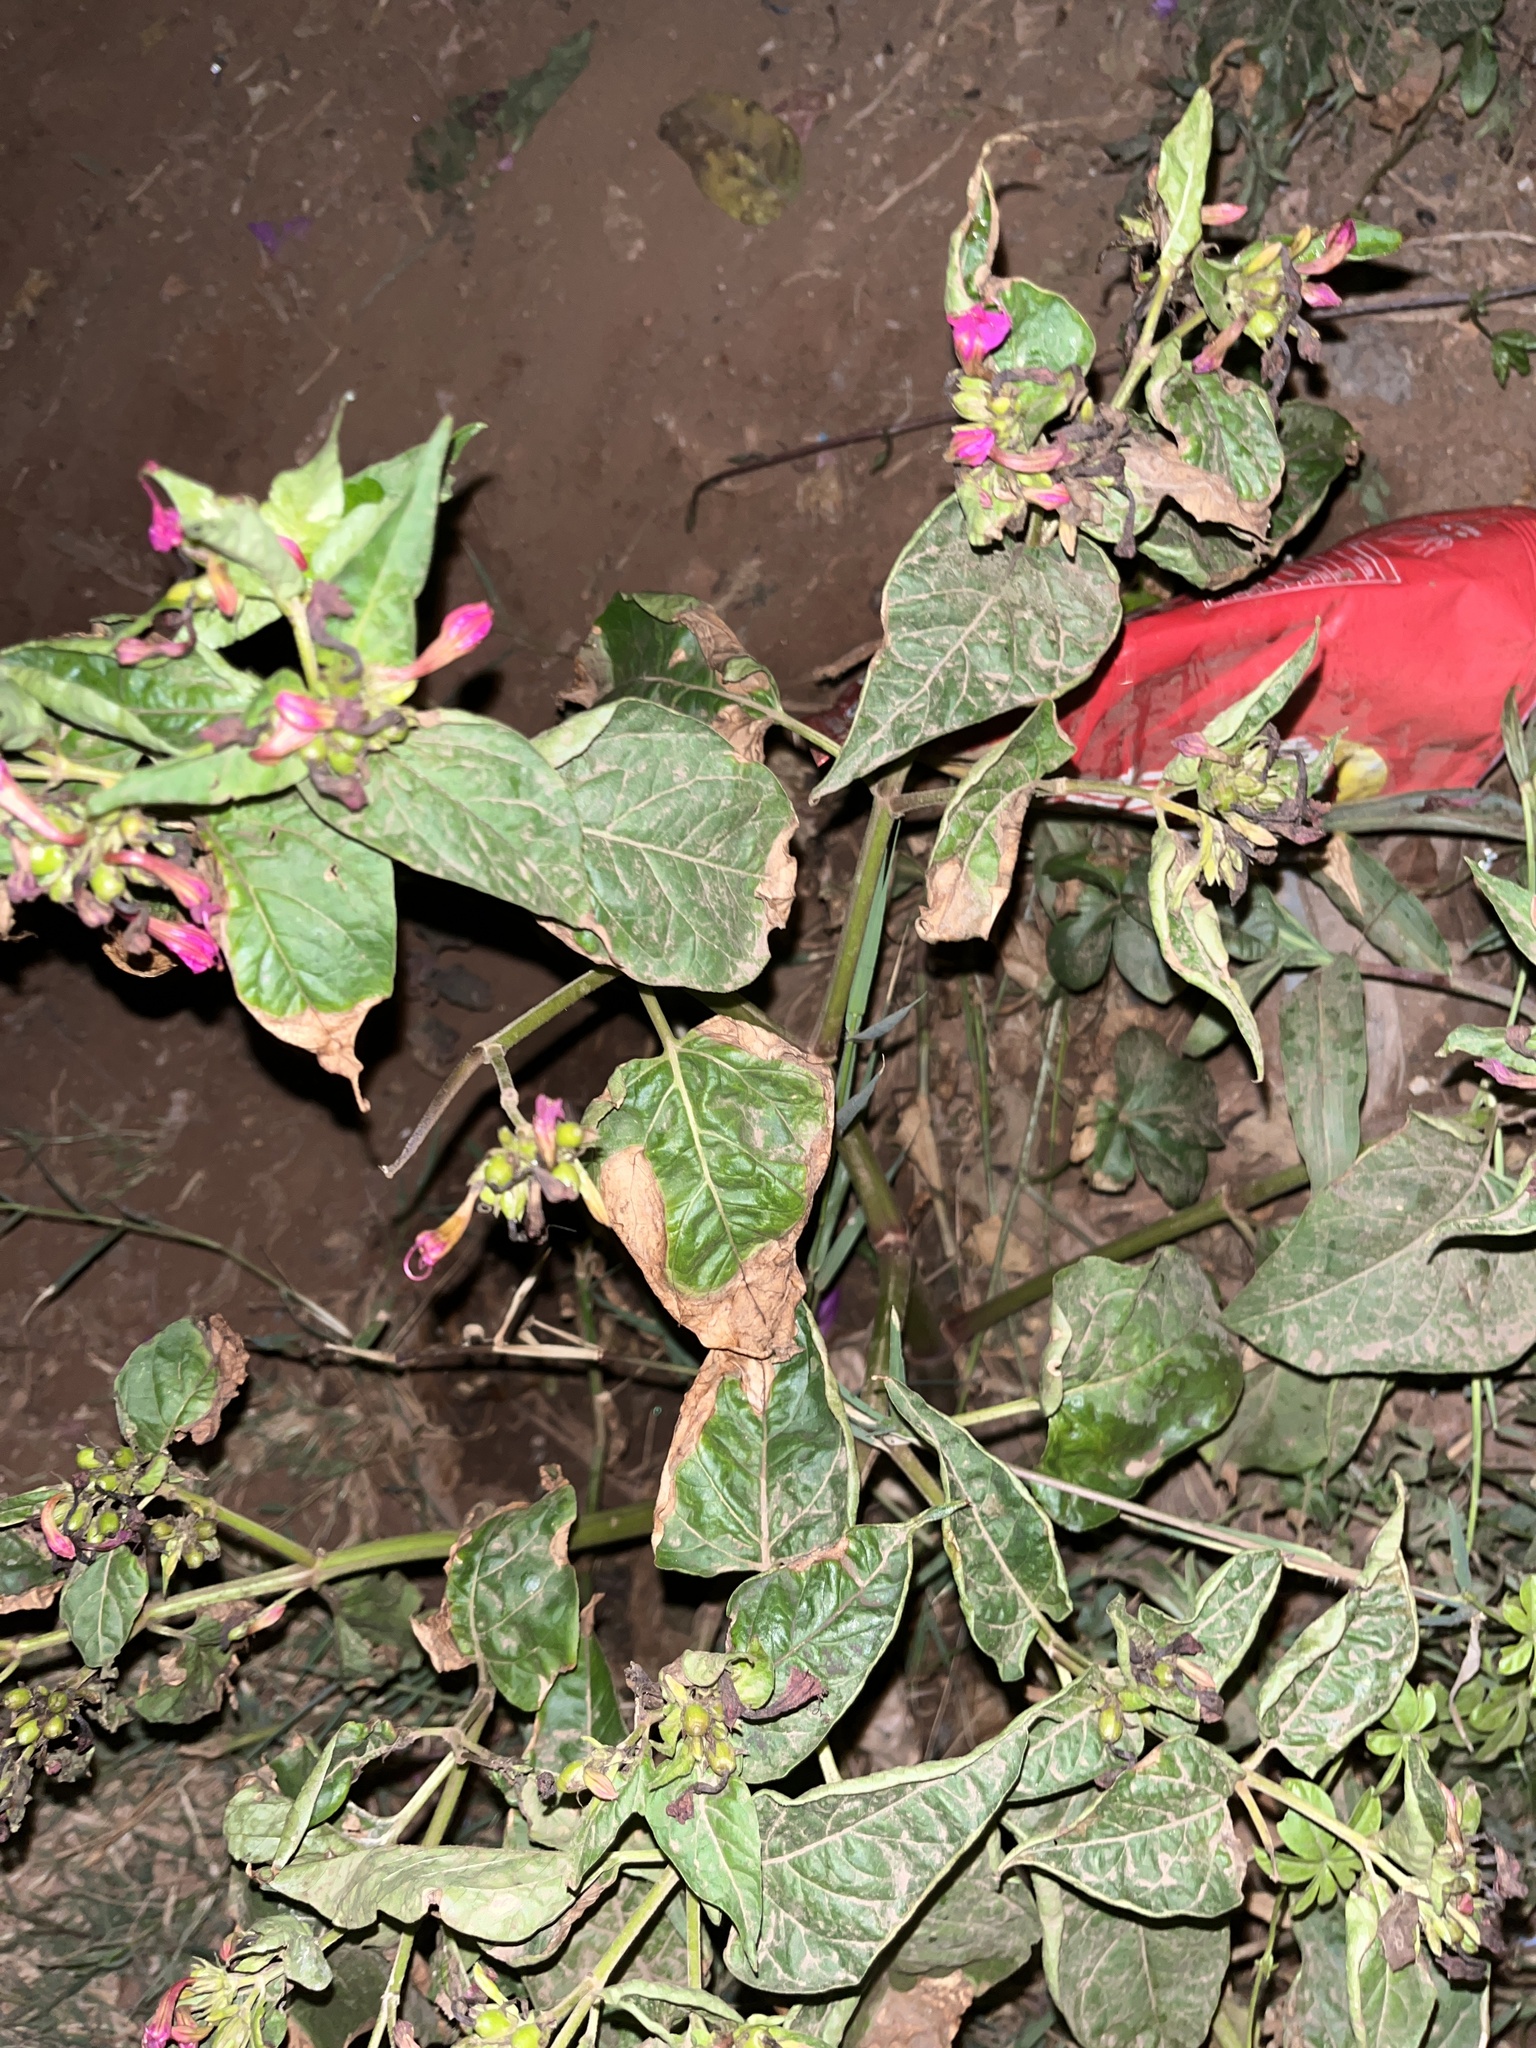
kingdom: Plantae
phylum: Tracheophyta
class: Magnoliopsida
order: Caryophyllales
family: Nyctaginaceae
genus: Mirabilis
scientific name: Mirabilis jalapa
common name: Marvel-of-peru
